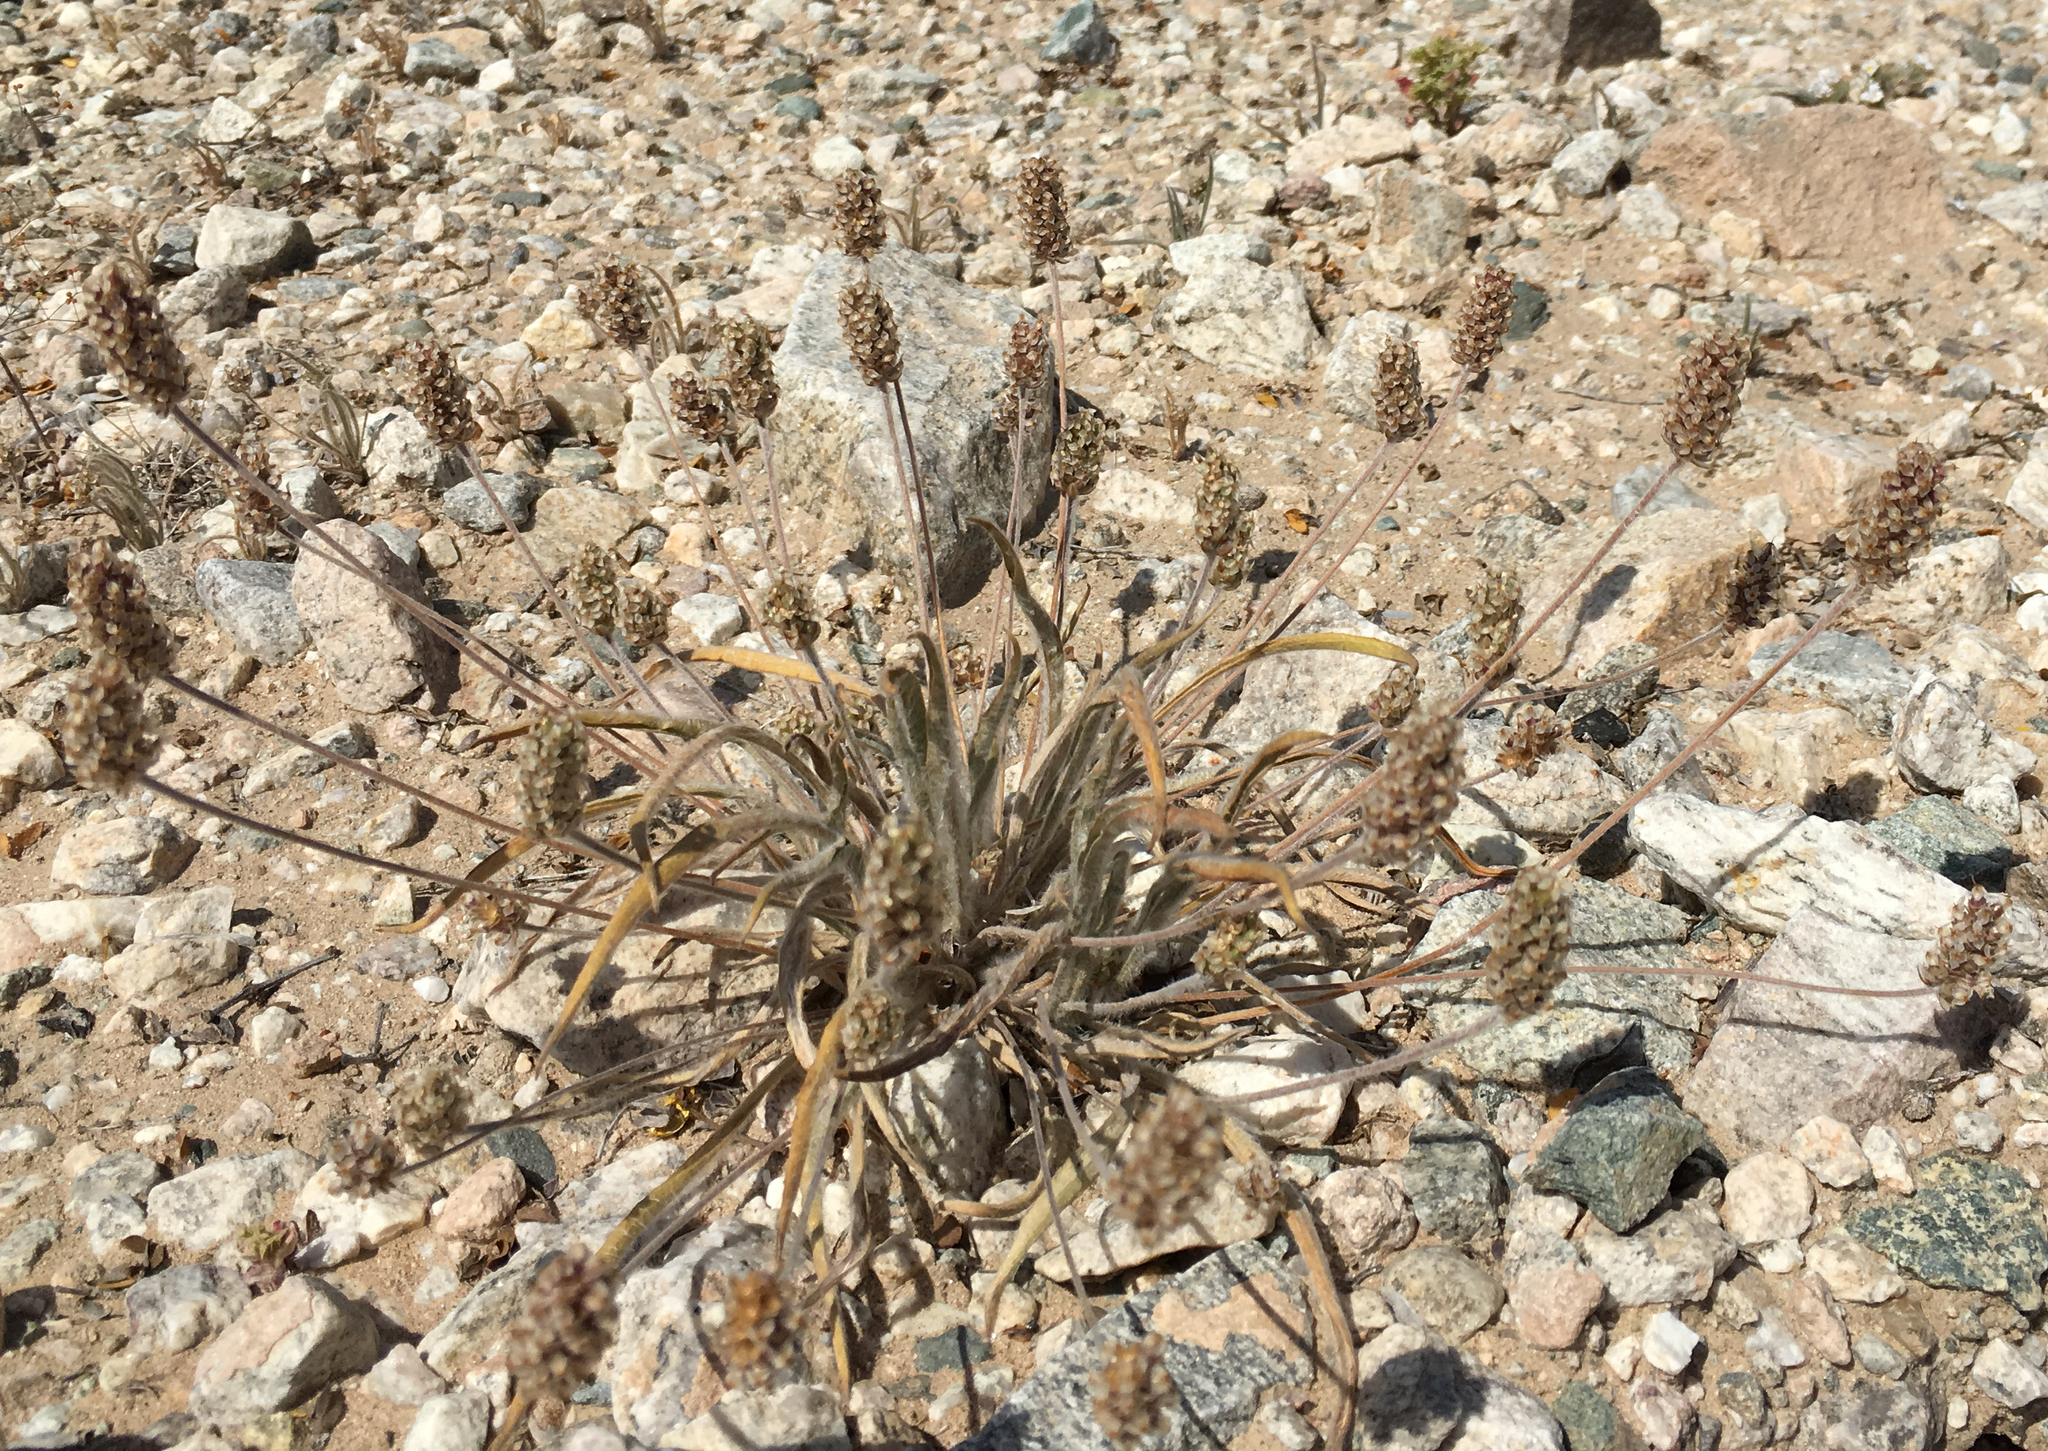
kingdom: Plantae
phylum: Tracheophyta
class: Magnoliopsida
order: Lamiales
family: Plantaginaceae
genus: Plantago
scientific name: Plantago ovata
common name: Blond plantain
